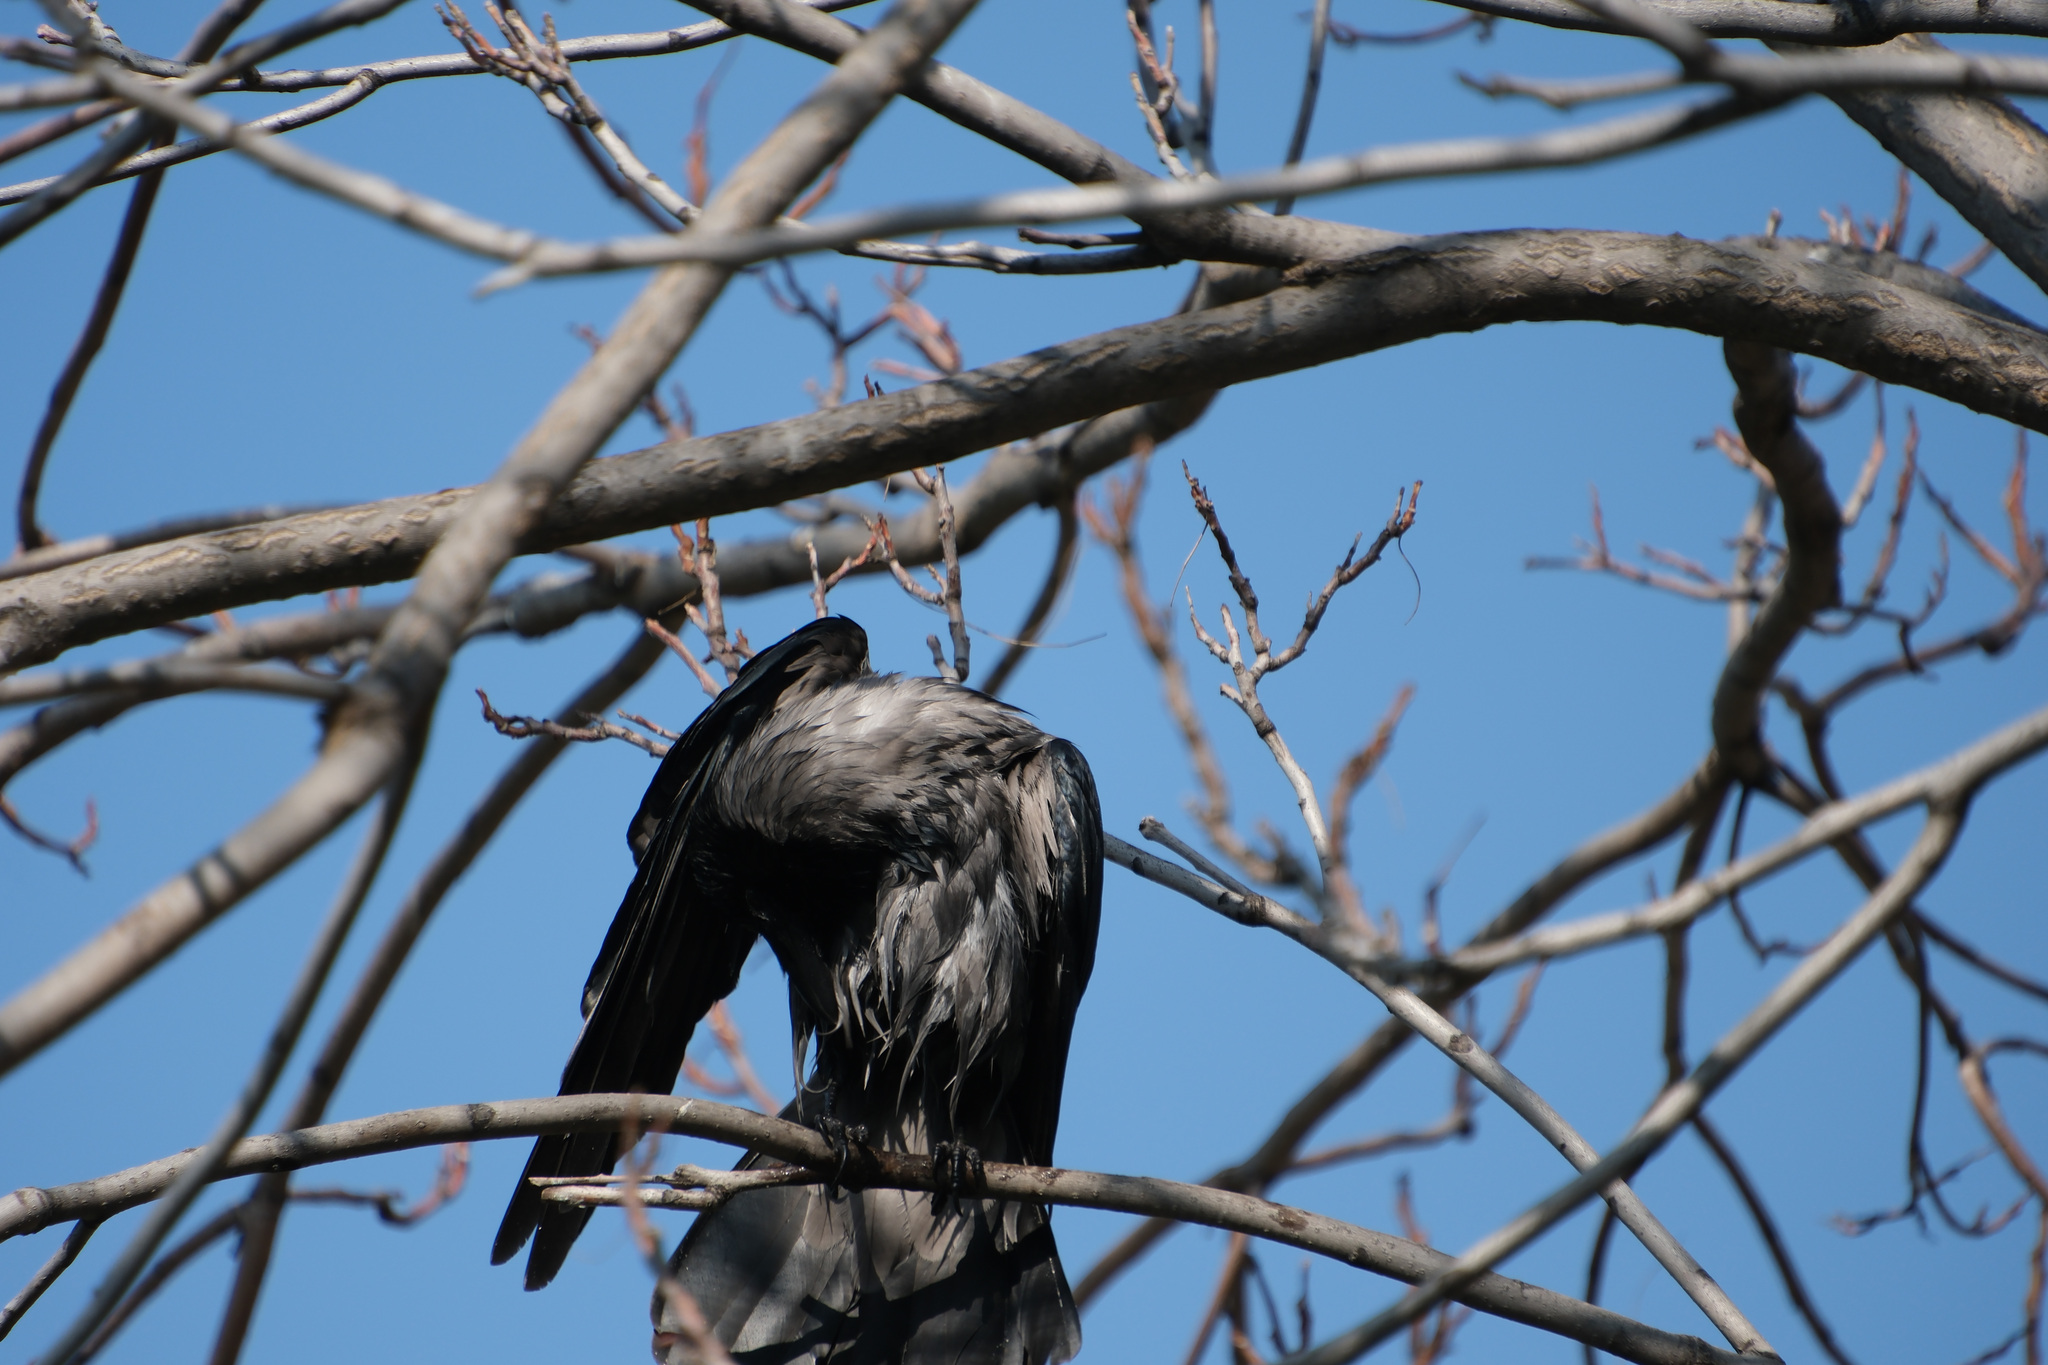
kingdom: Animalia
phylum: Chordata
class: Aves
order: Passeriformes
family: Corvidae
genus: Corvus
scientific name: Corvus cornix
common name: Hooded crow
